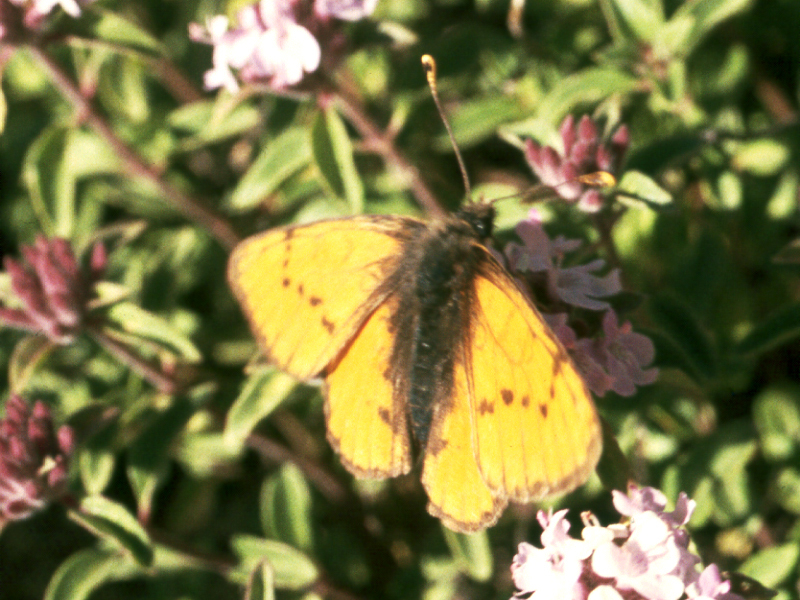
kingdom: Animalia
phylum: Arthropoda
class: Insecta
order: Lepidoptera
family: Nymphalidae
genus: Melitaea
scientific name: Melitaea infernalis
